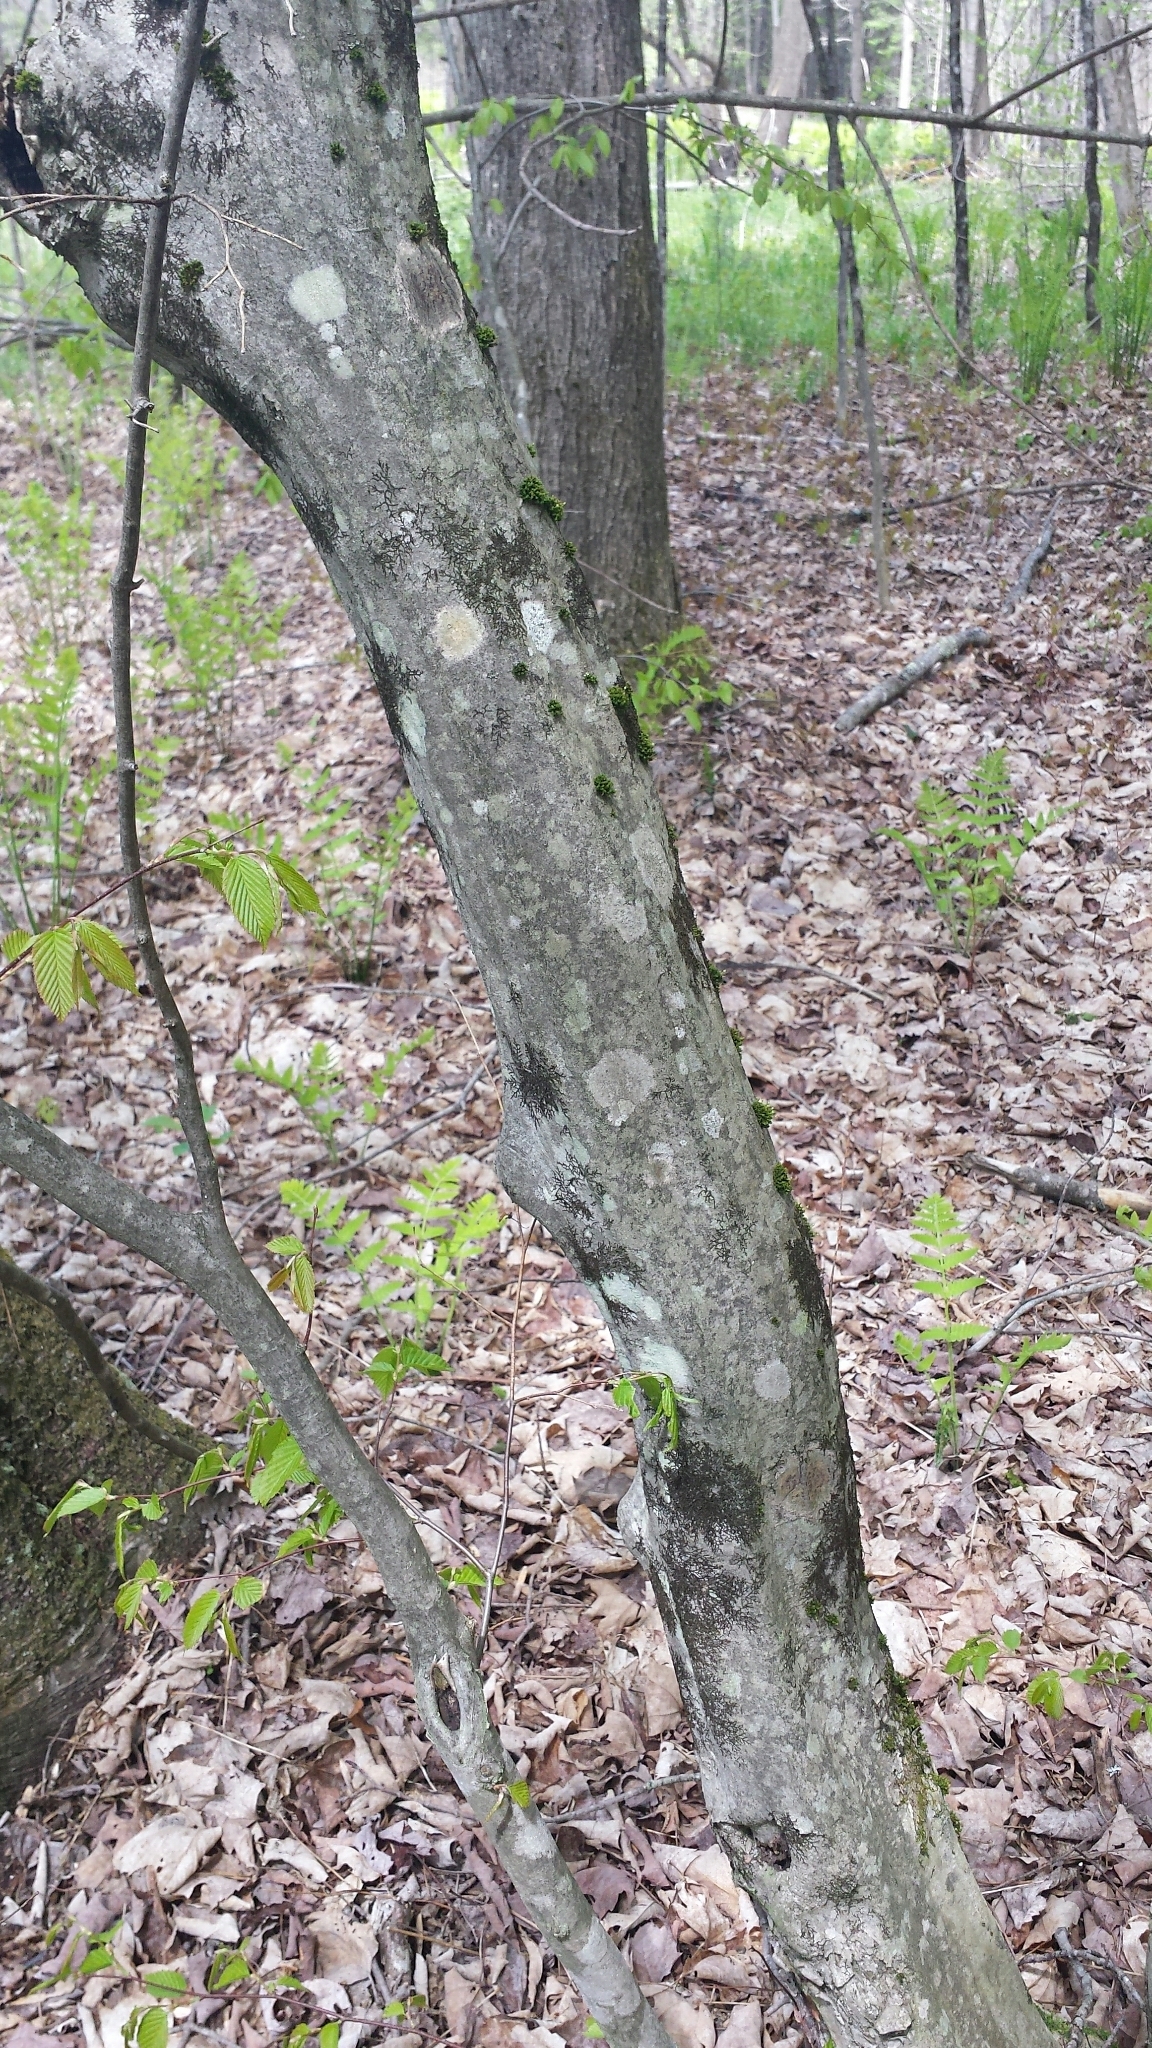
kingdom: Plantae
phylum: Tracheophyta
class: Magnoliopsida
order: Fagales
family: Betulaceae
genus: Carpinus
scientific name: Carpinus caroliniana
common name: American hornbeam
